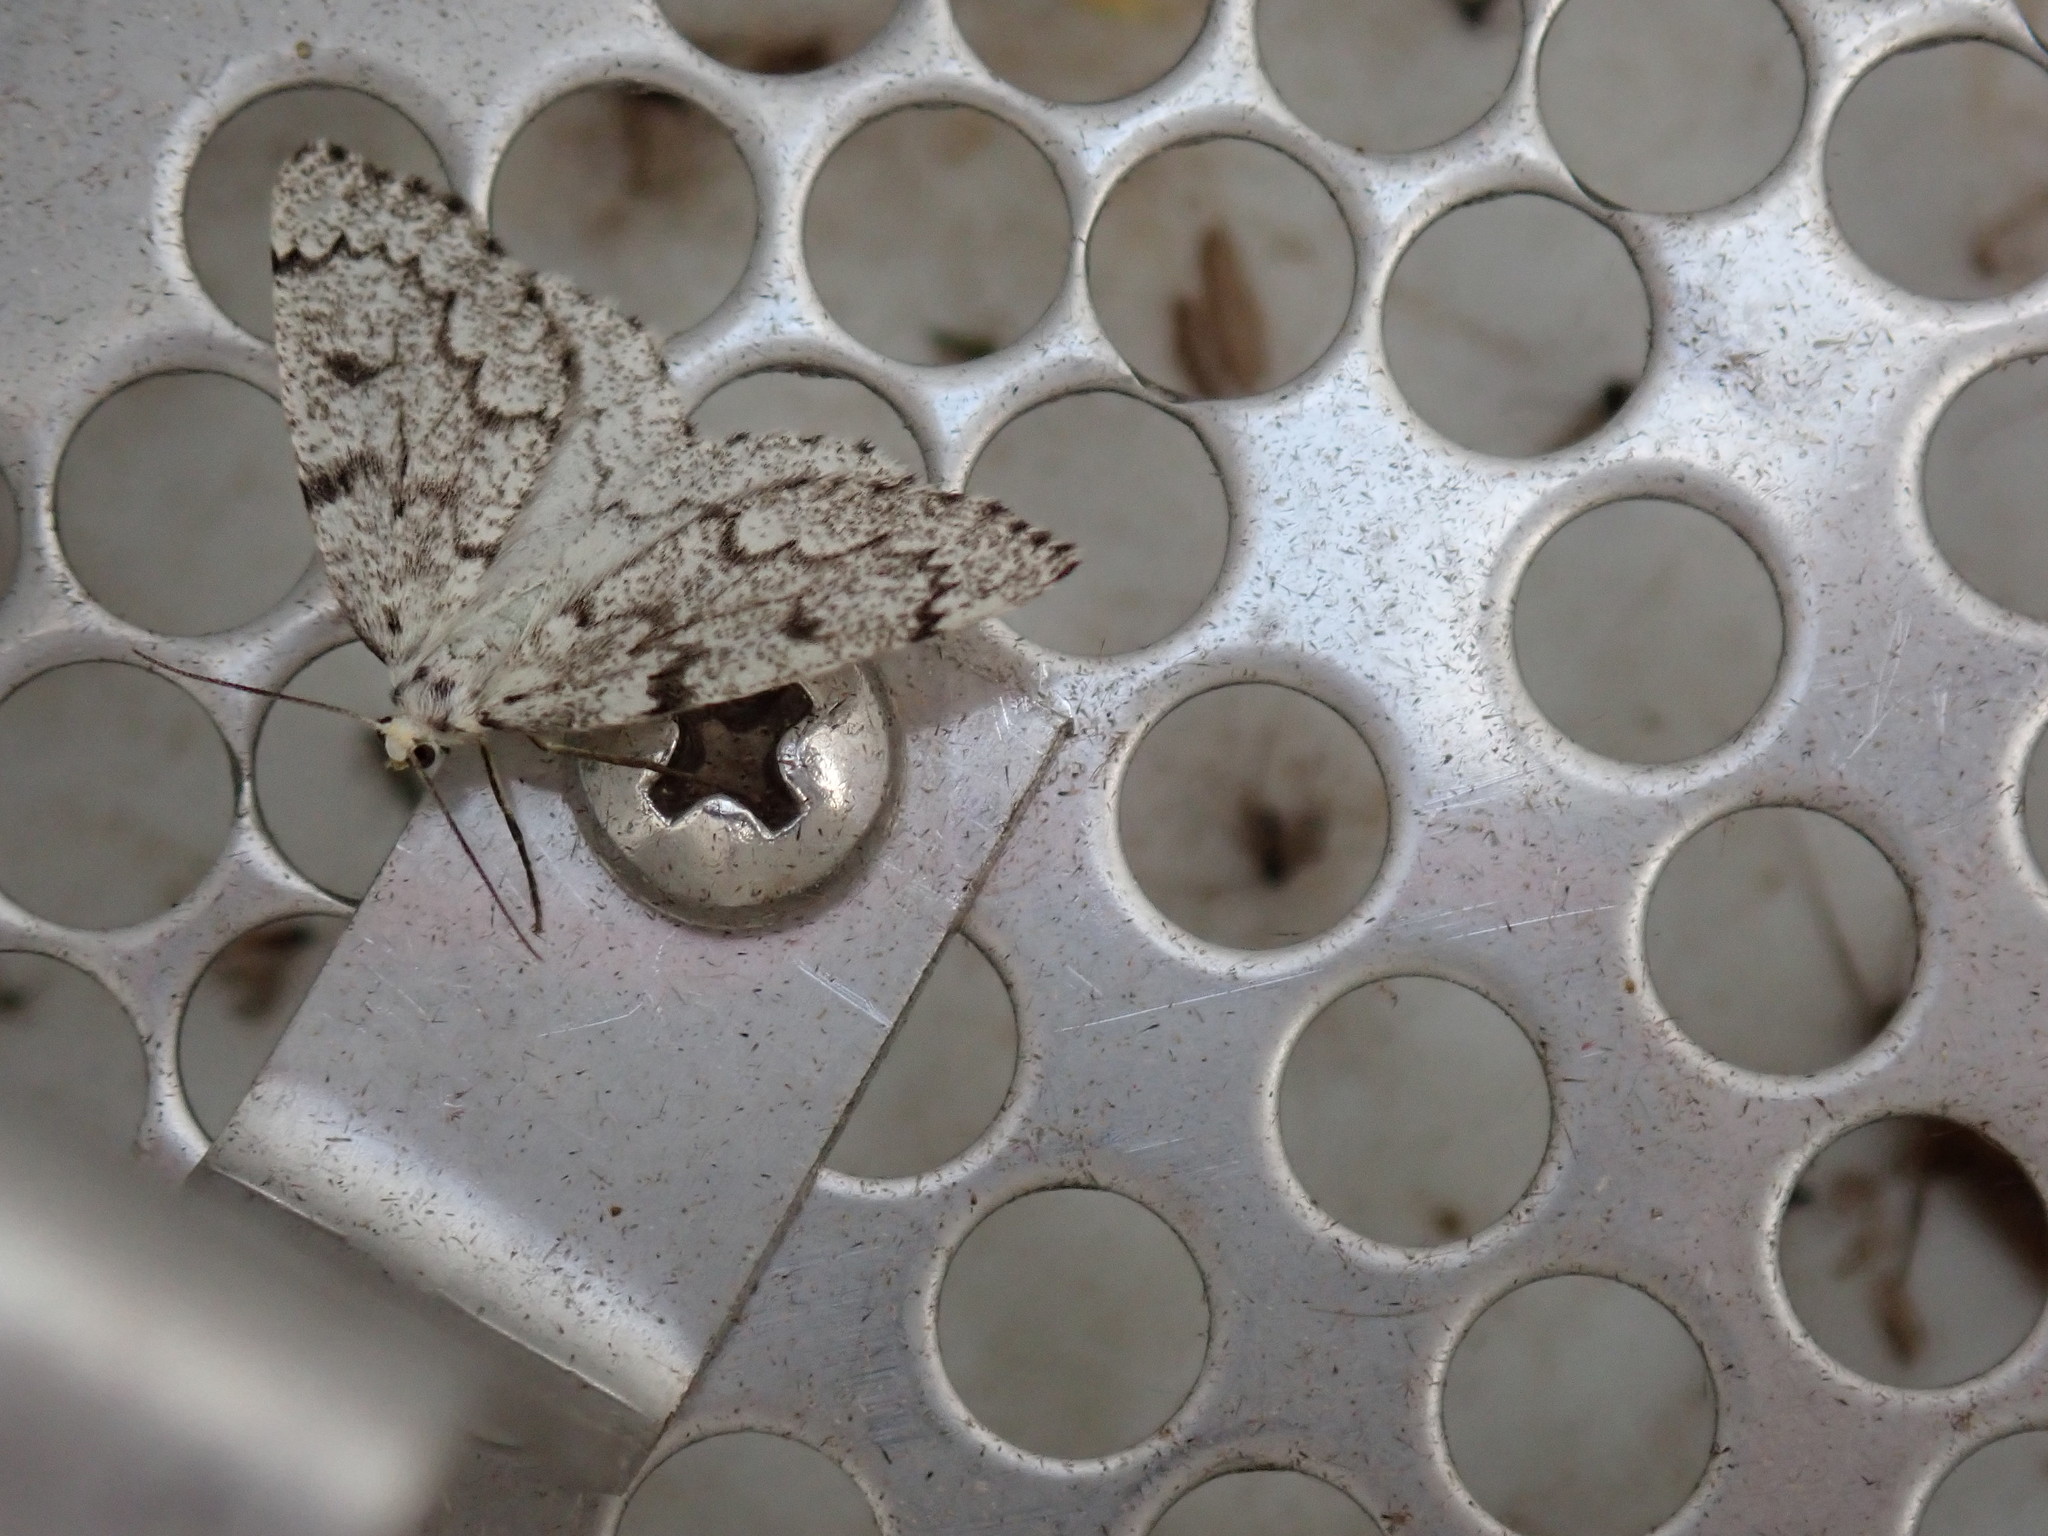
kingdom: Animalia
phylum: Arthropoda
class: Insecta
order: Lepidoptera
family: Geometridae
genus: Nepytia
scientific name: Nepytia canosaria
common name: False hemlock looper
